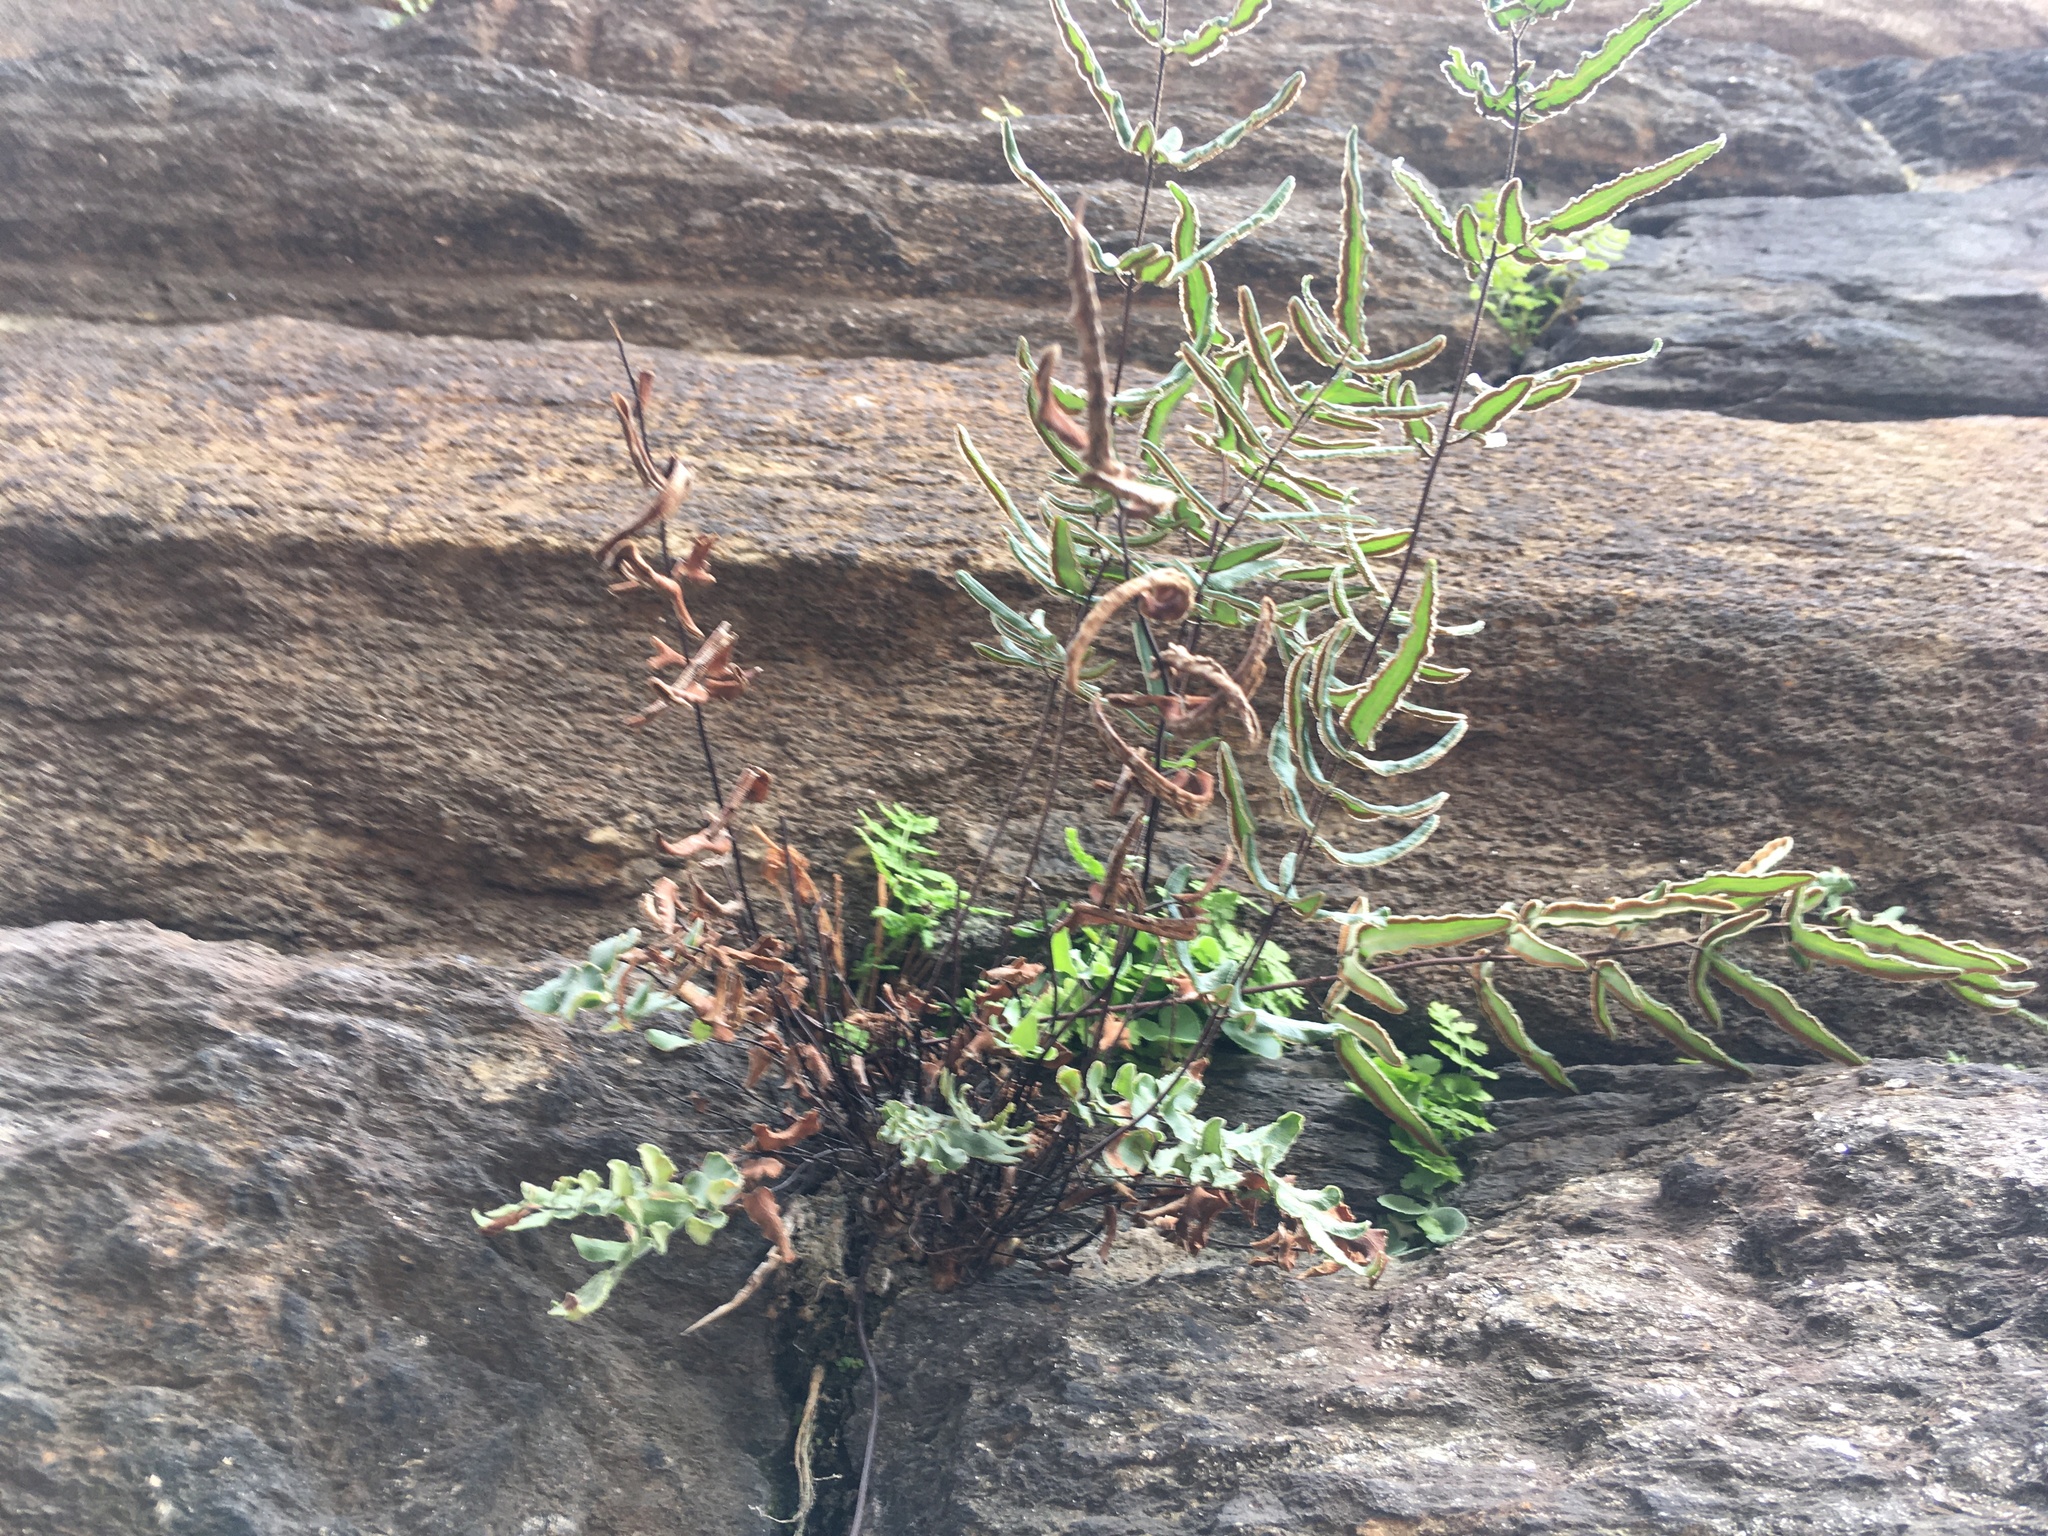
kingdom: Plantae
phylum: Tracheophyta
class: Polypodiopsida
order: Polypodiales
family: Pteridaceae
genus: Pellaea
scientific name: Pellaea atropurpurea
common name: Hairy cliffbrake
